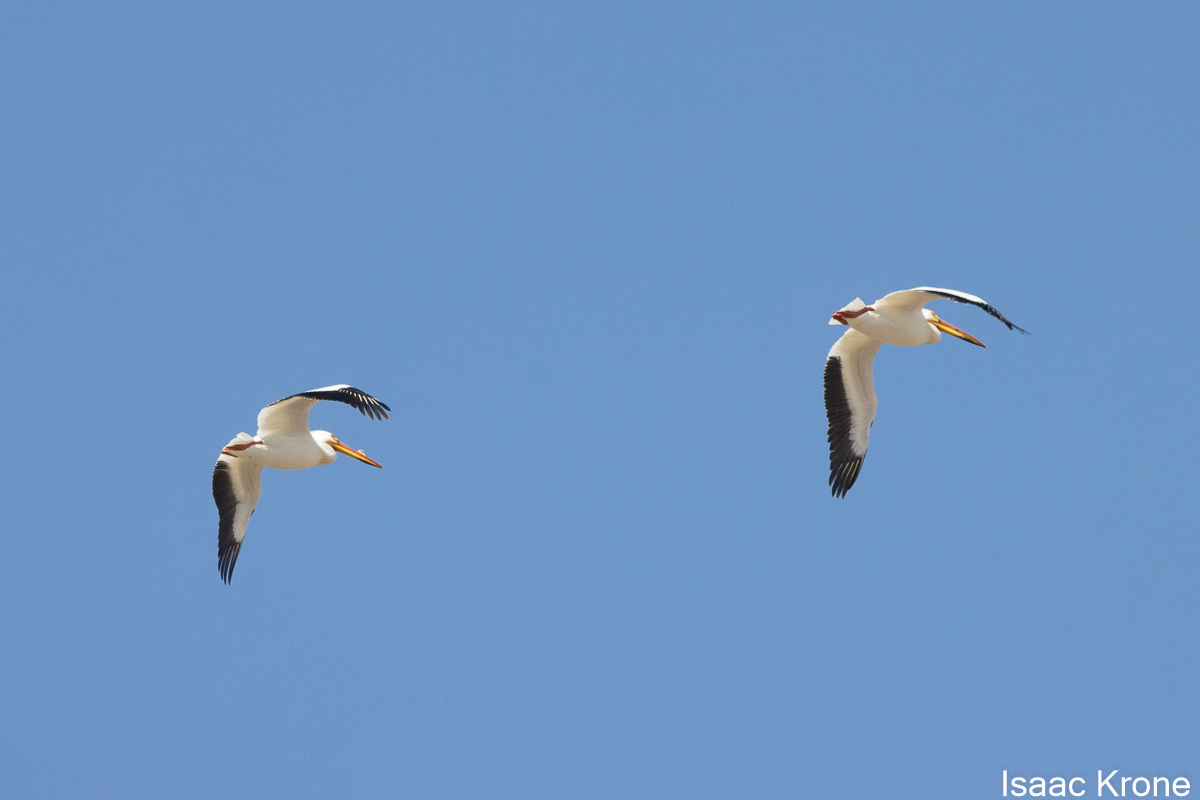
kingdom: Animalia
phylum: Chordata
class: Aves
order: Pelecaniformes
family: Pelecanidae
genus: Pelecanus
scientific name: Pelecanus erythrorhynchos
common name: American white pelican
